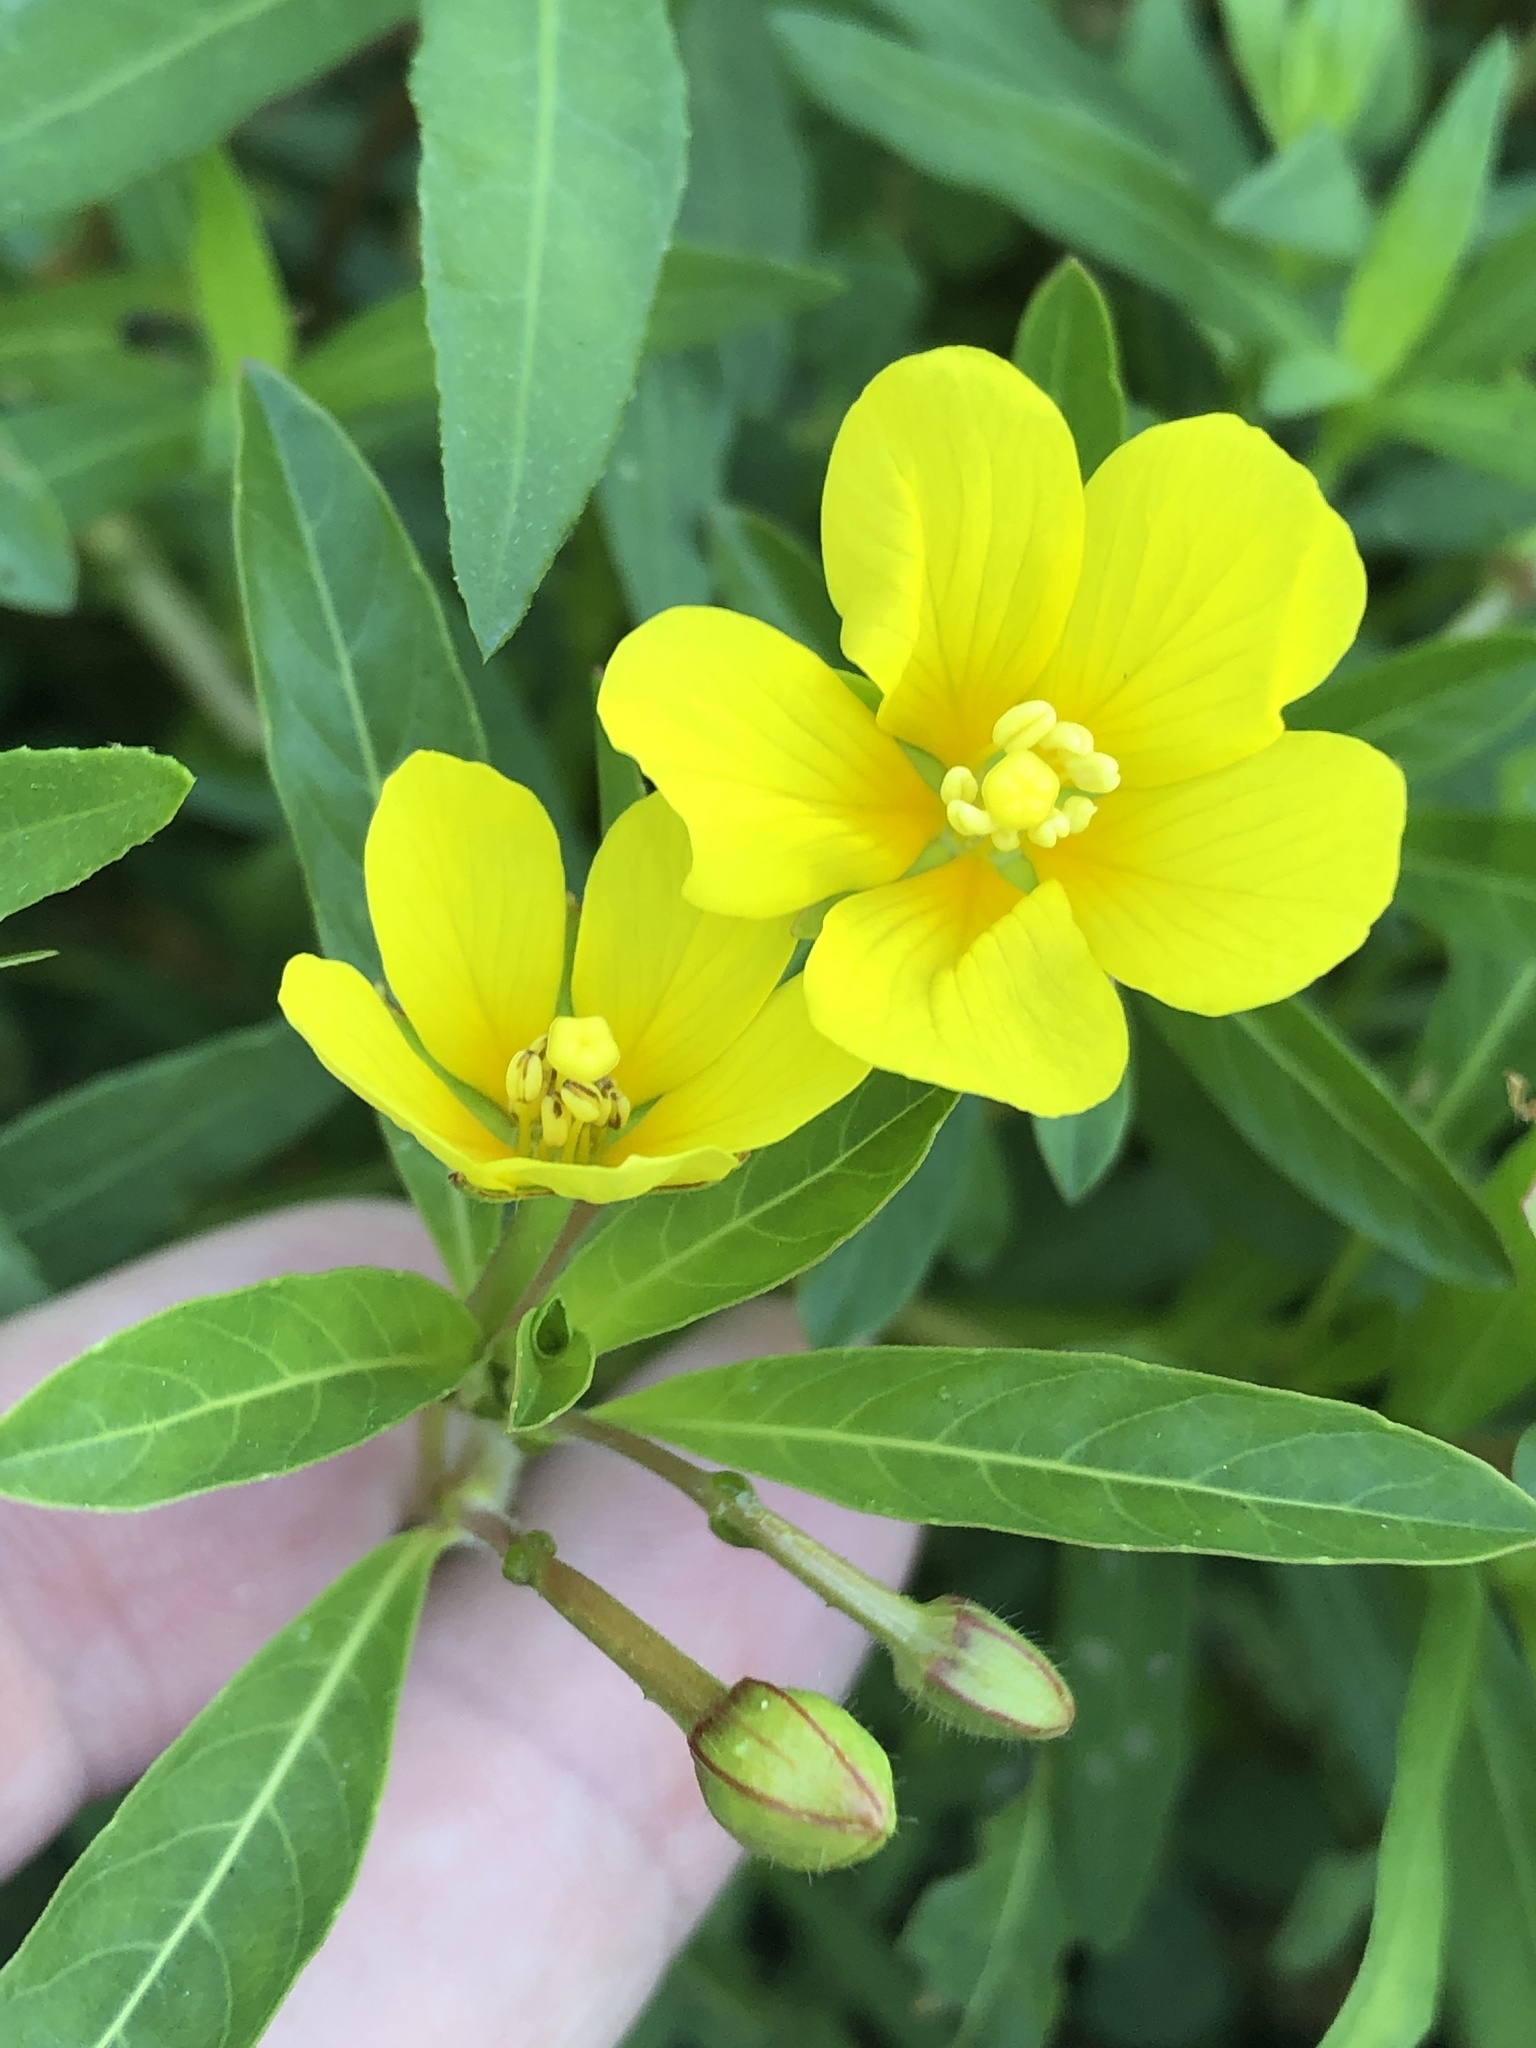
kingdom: Plantae
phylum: Tracheophyta
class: Magnoliopsida
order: Myrtales
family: Onagraceae
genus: Ludwigia
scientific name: Ludwigia peploides
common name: Floating primrose-willow
